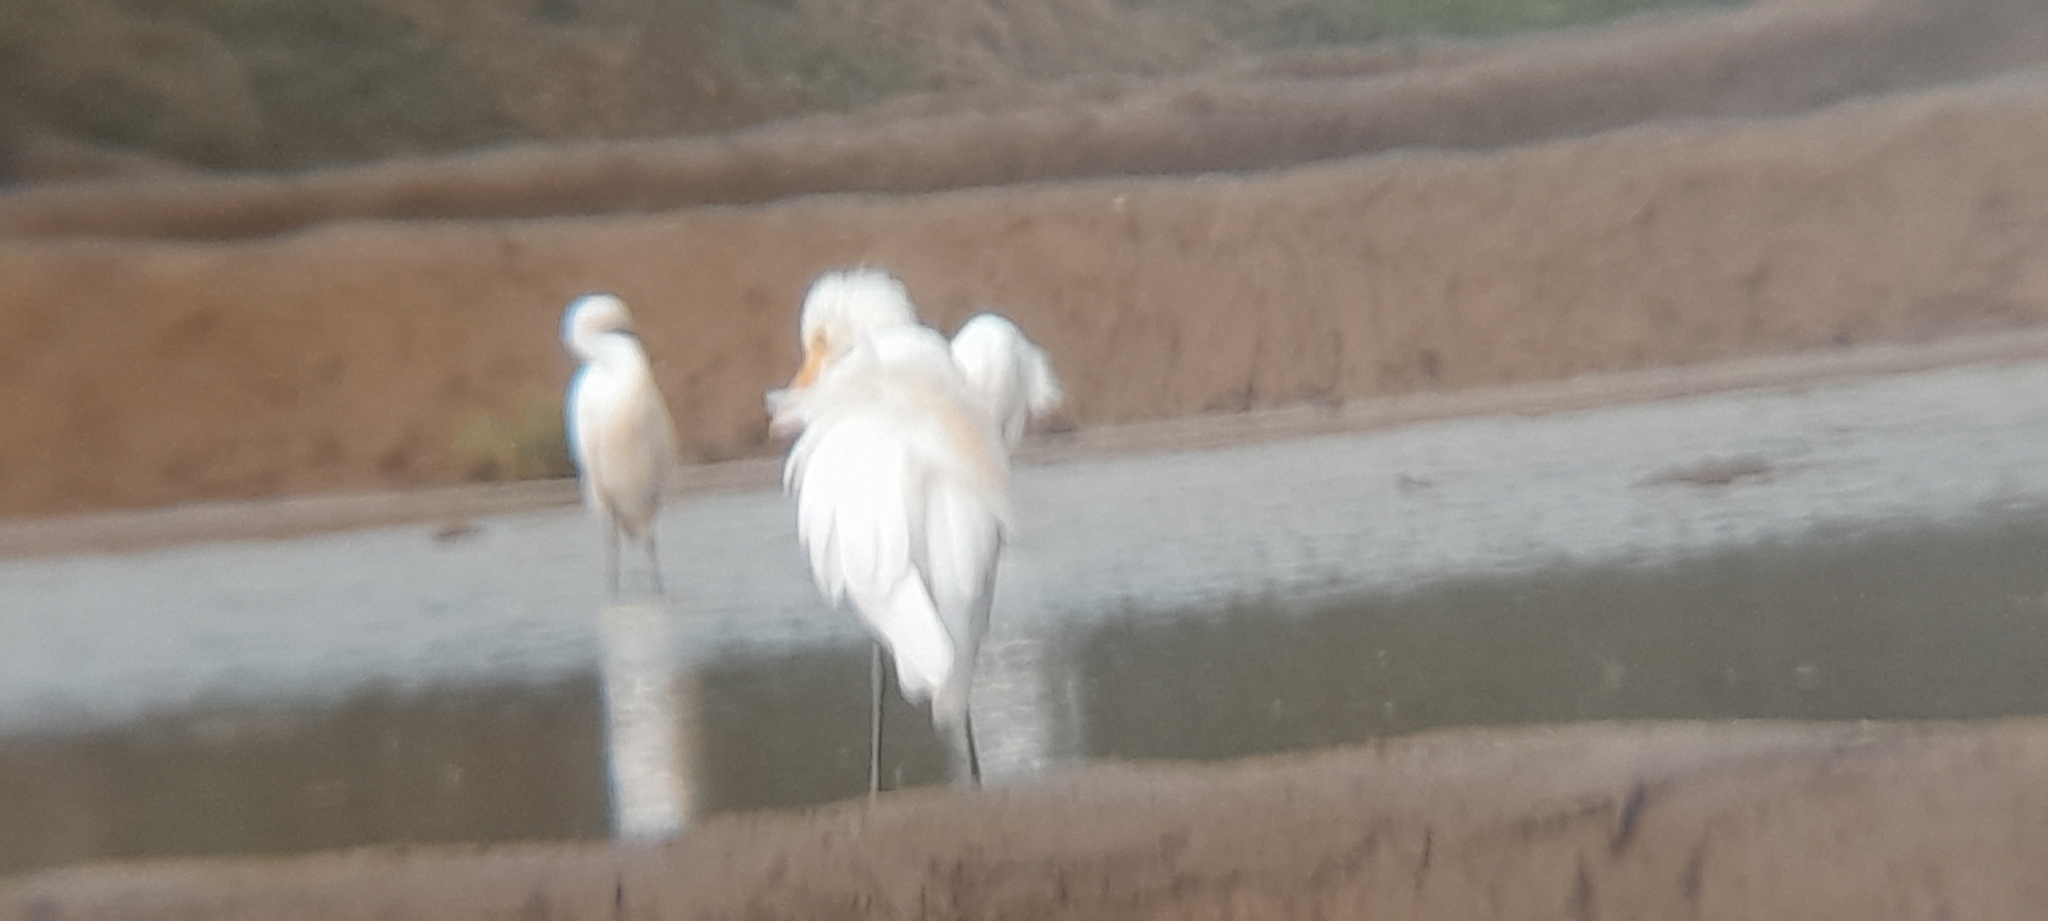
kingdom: Animalia
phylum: Chordata
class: Aves
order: Pelecaniformes
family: Ardeidae
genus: Bubulcus
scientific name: Bubulcus coromandus
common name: Eastern cattle egret
